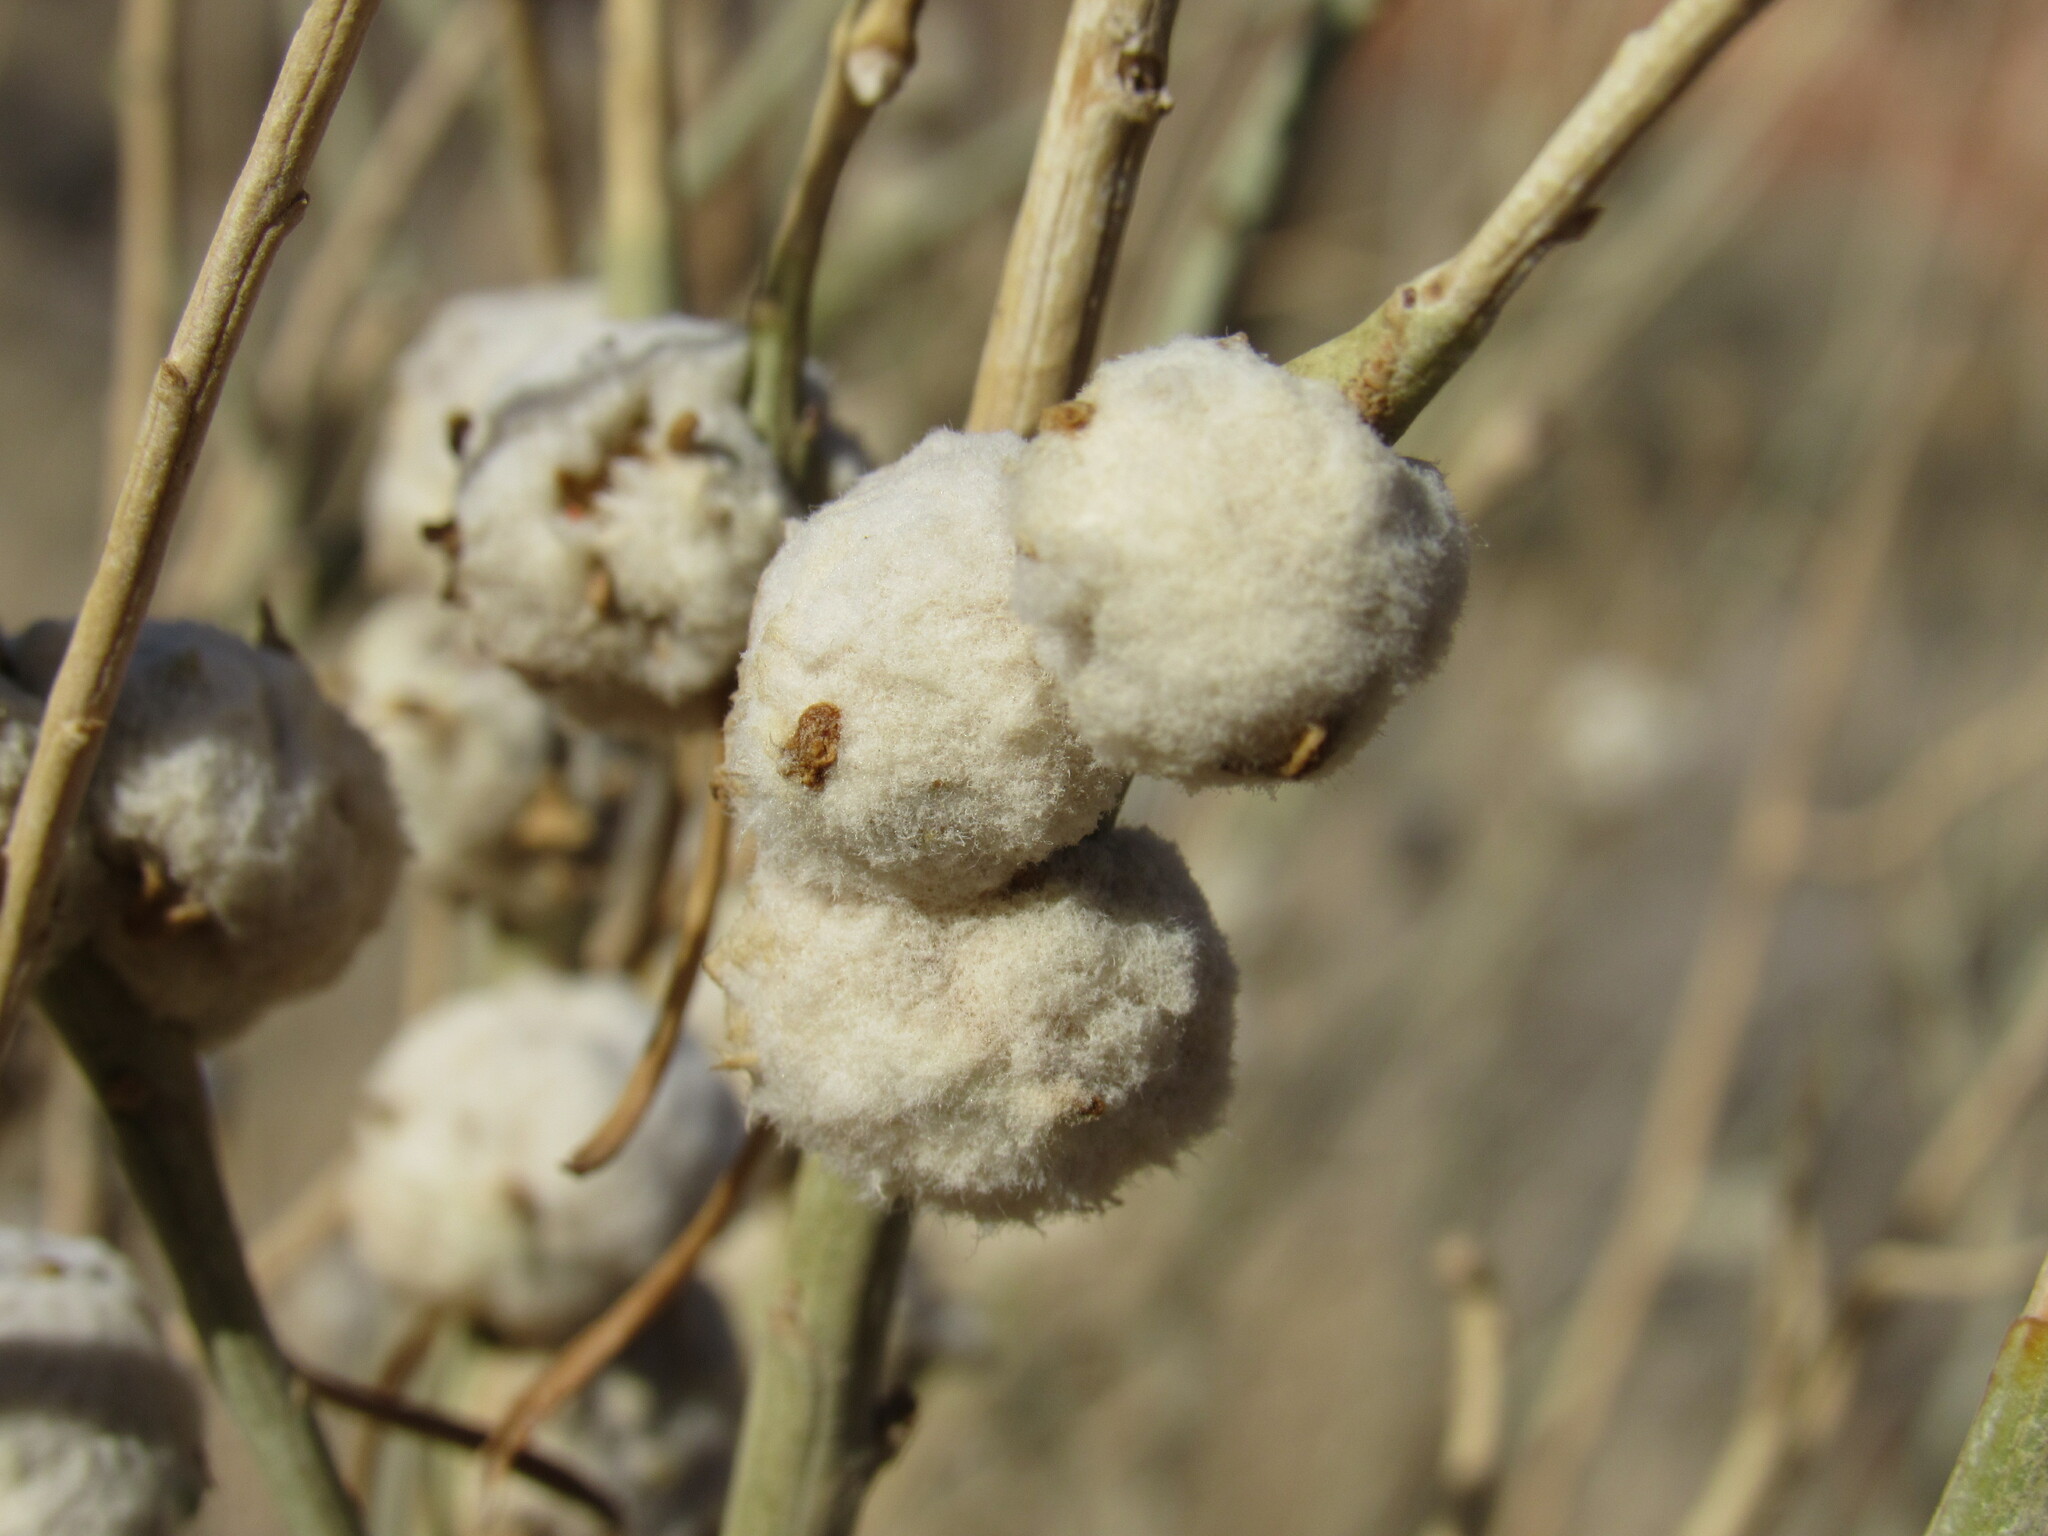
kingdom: Animalia
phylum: Arthropoda
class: Insecta
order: Diptera
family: Tephritidae
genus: Aciurina
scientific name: Aciurina bigeloviae
